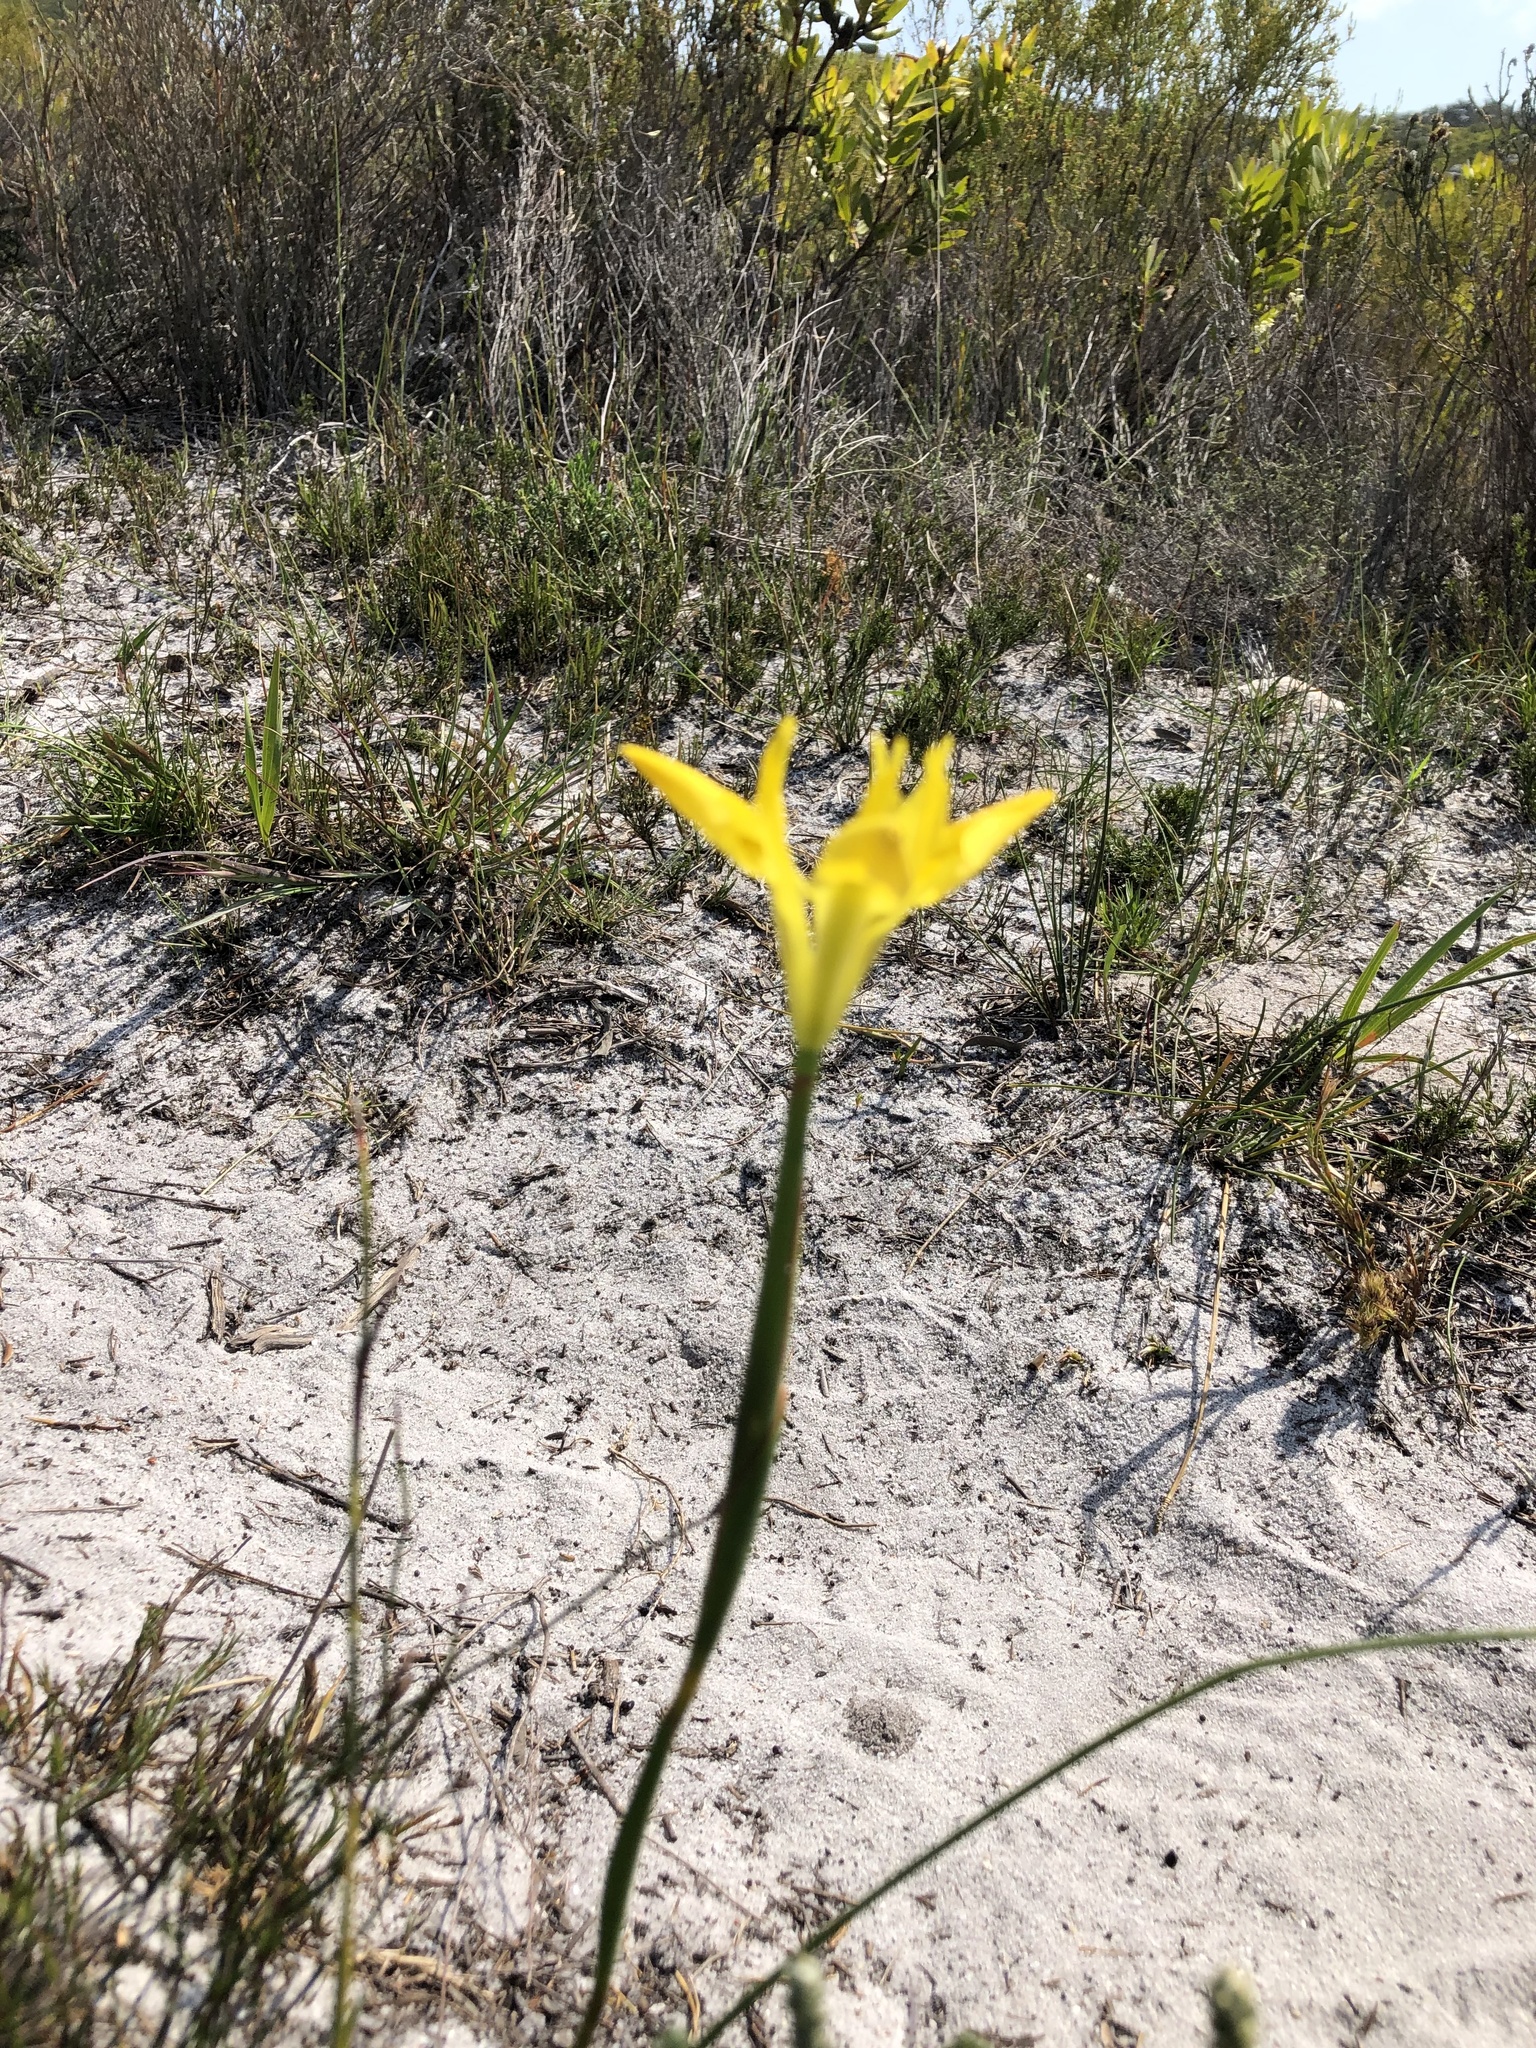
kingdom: Plantae
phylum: Tracheophyta
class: Liliopsida
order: Asparagales
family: Iridaceae
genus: Moraea
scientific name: Moraea neglecta
